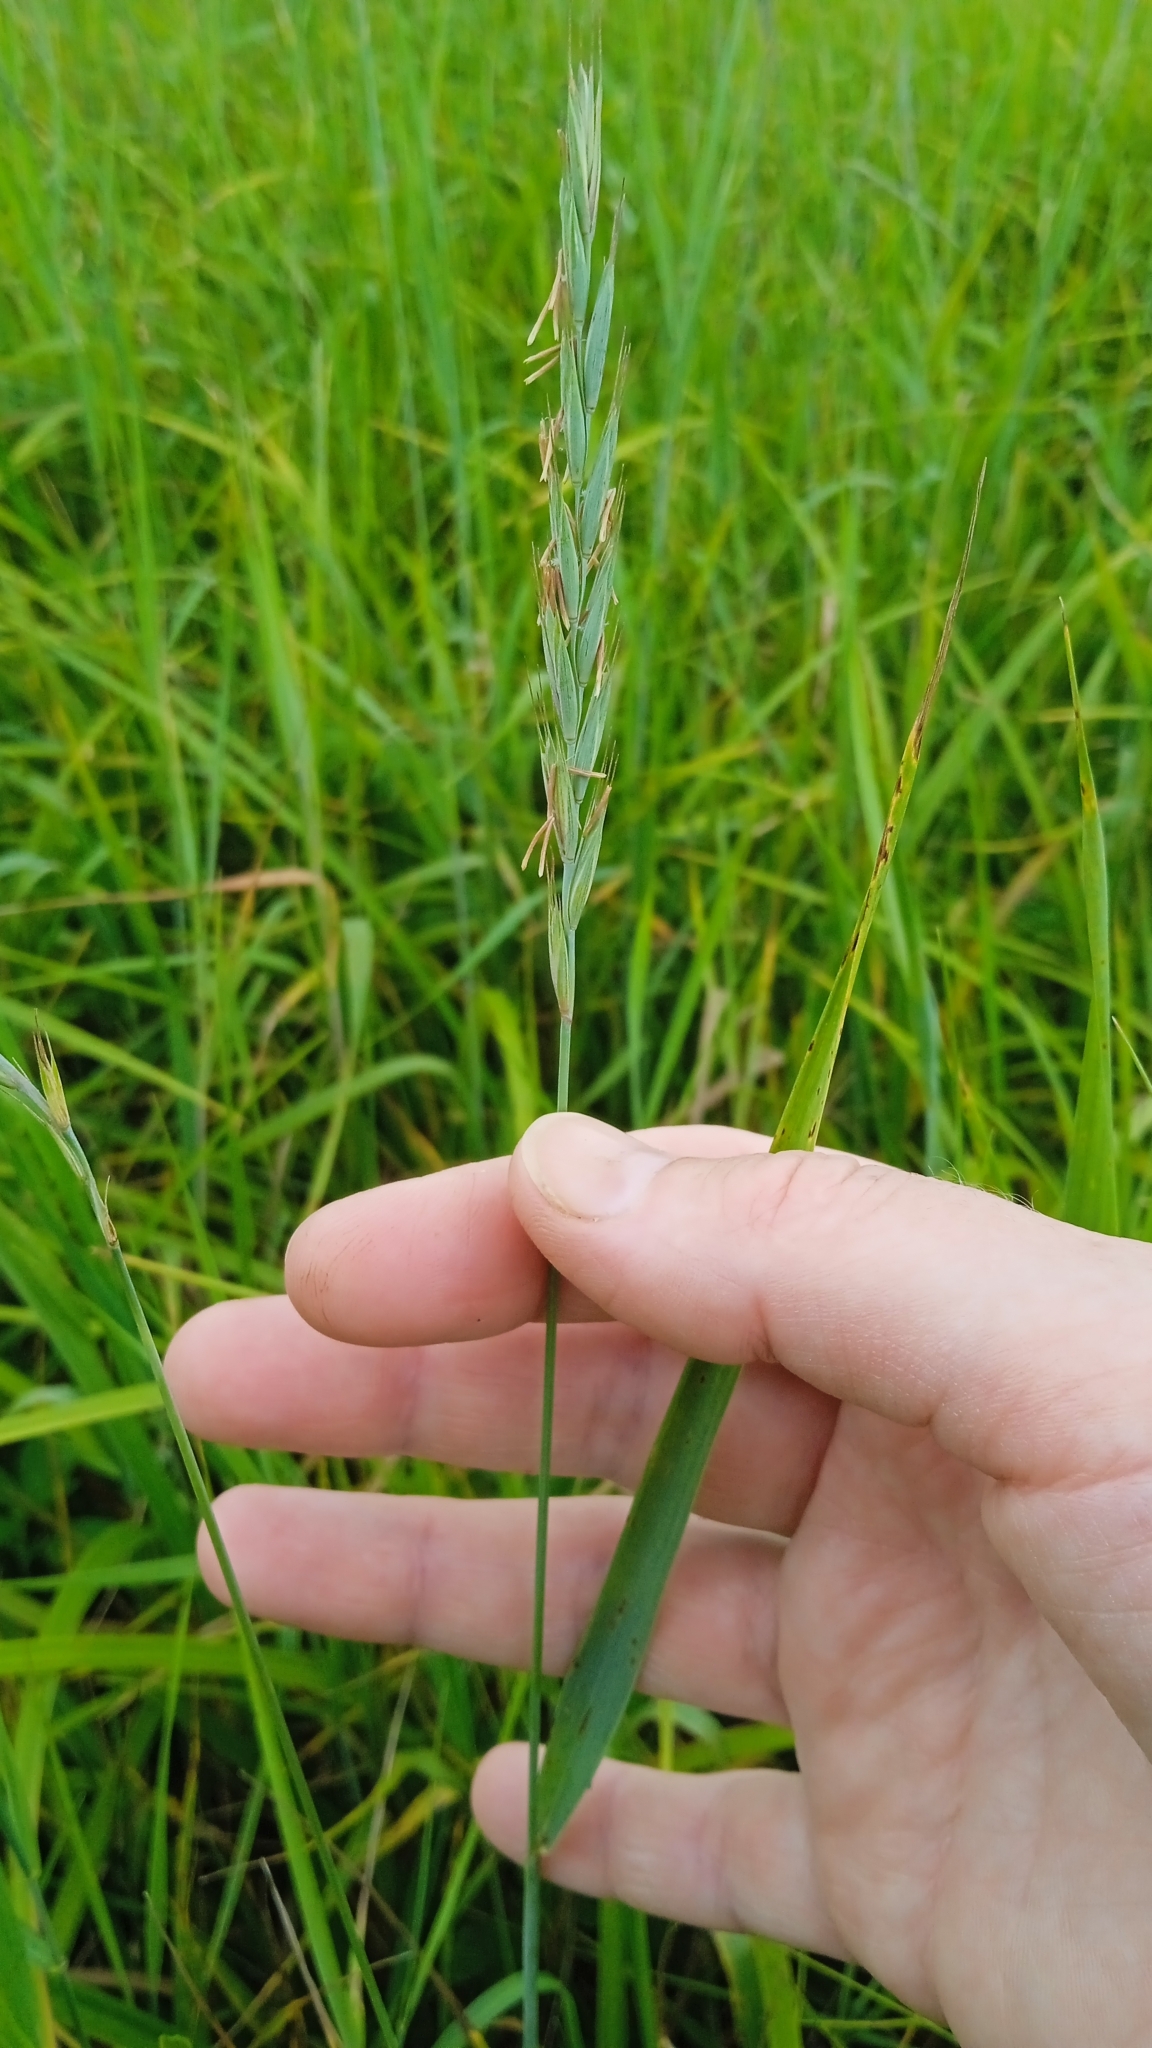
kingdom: Plantae
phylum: Tracheophyta
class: Liliopsida
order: Poales
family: Poaceae
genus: Elymus
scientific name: Elymus repens
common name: Quackgrass
